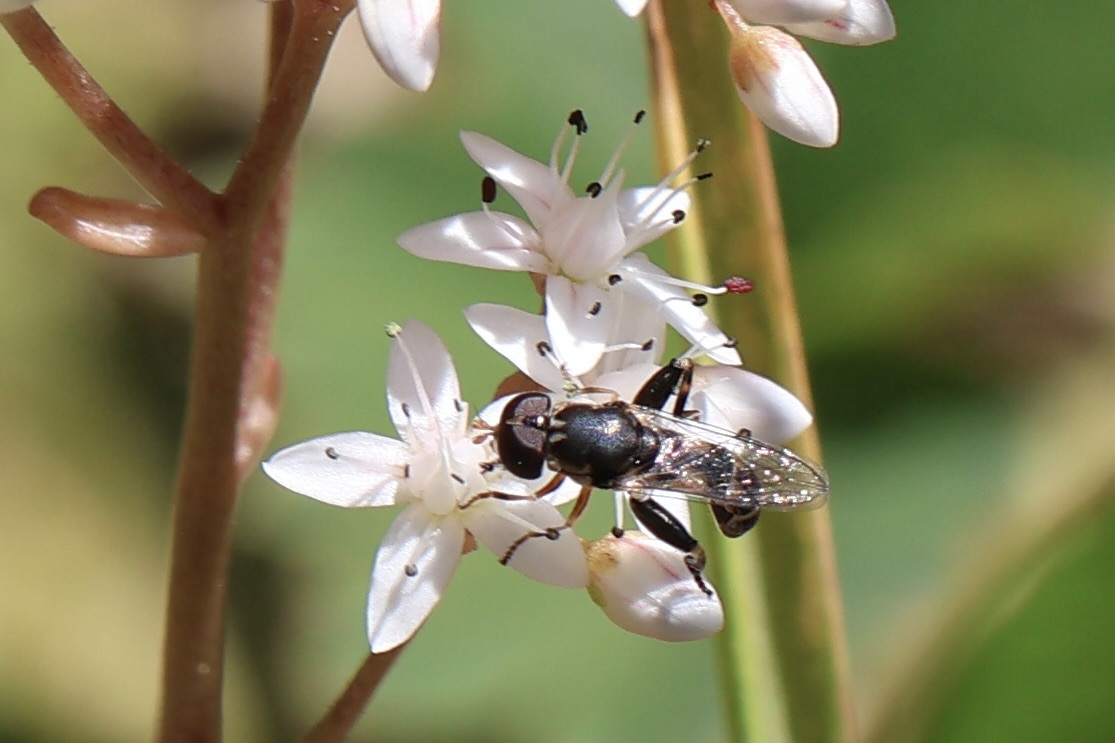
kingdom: Animalia
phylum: Arthropoda
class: Insecta
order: Diptera
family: Syrphidae
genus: Syritta
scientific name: Syritta pipiens
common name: Hover fly
